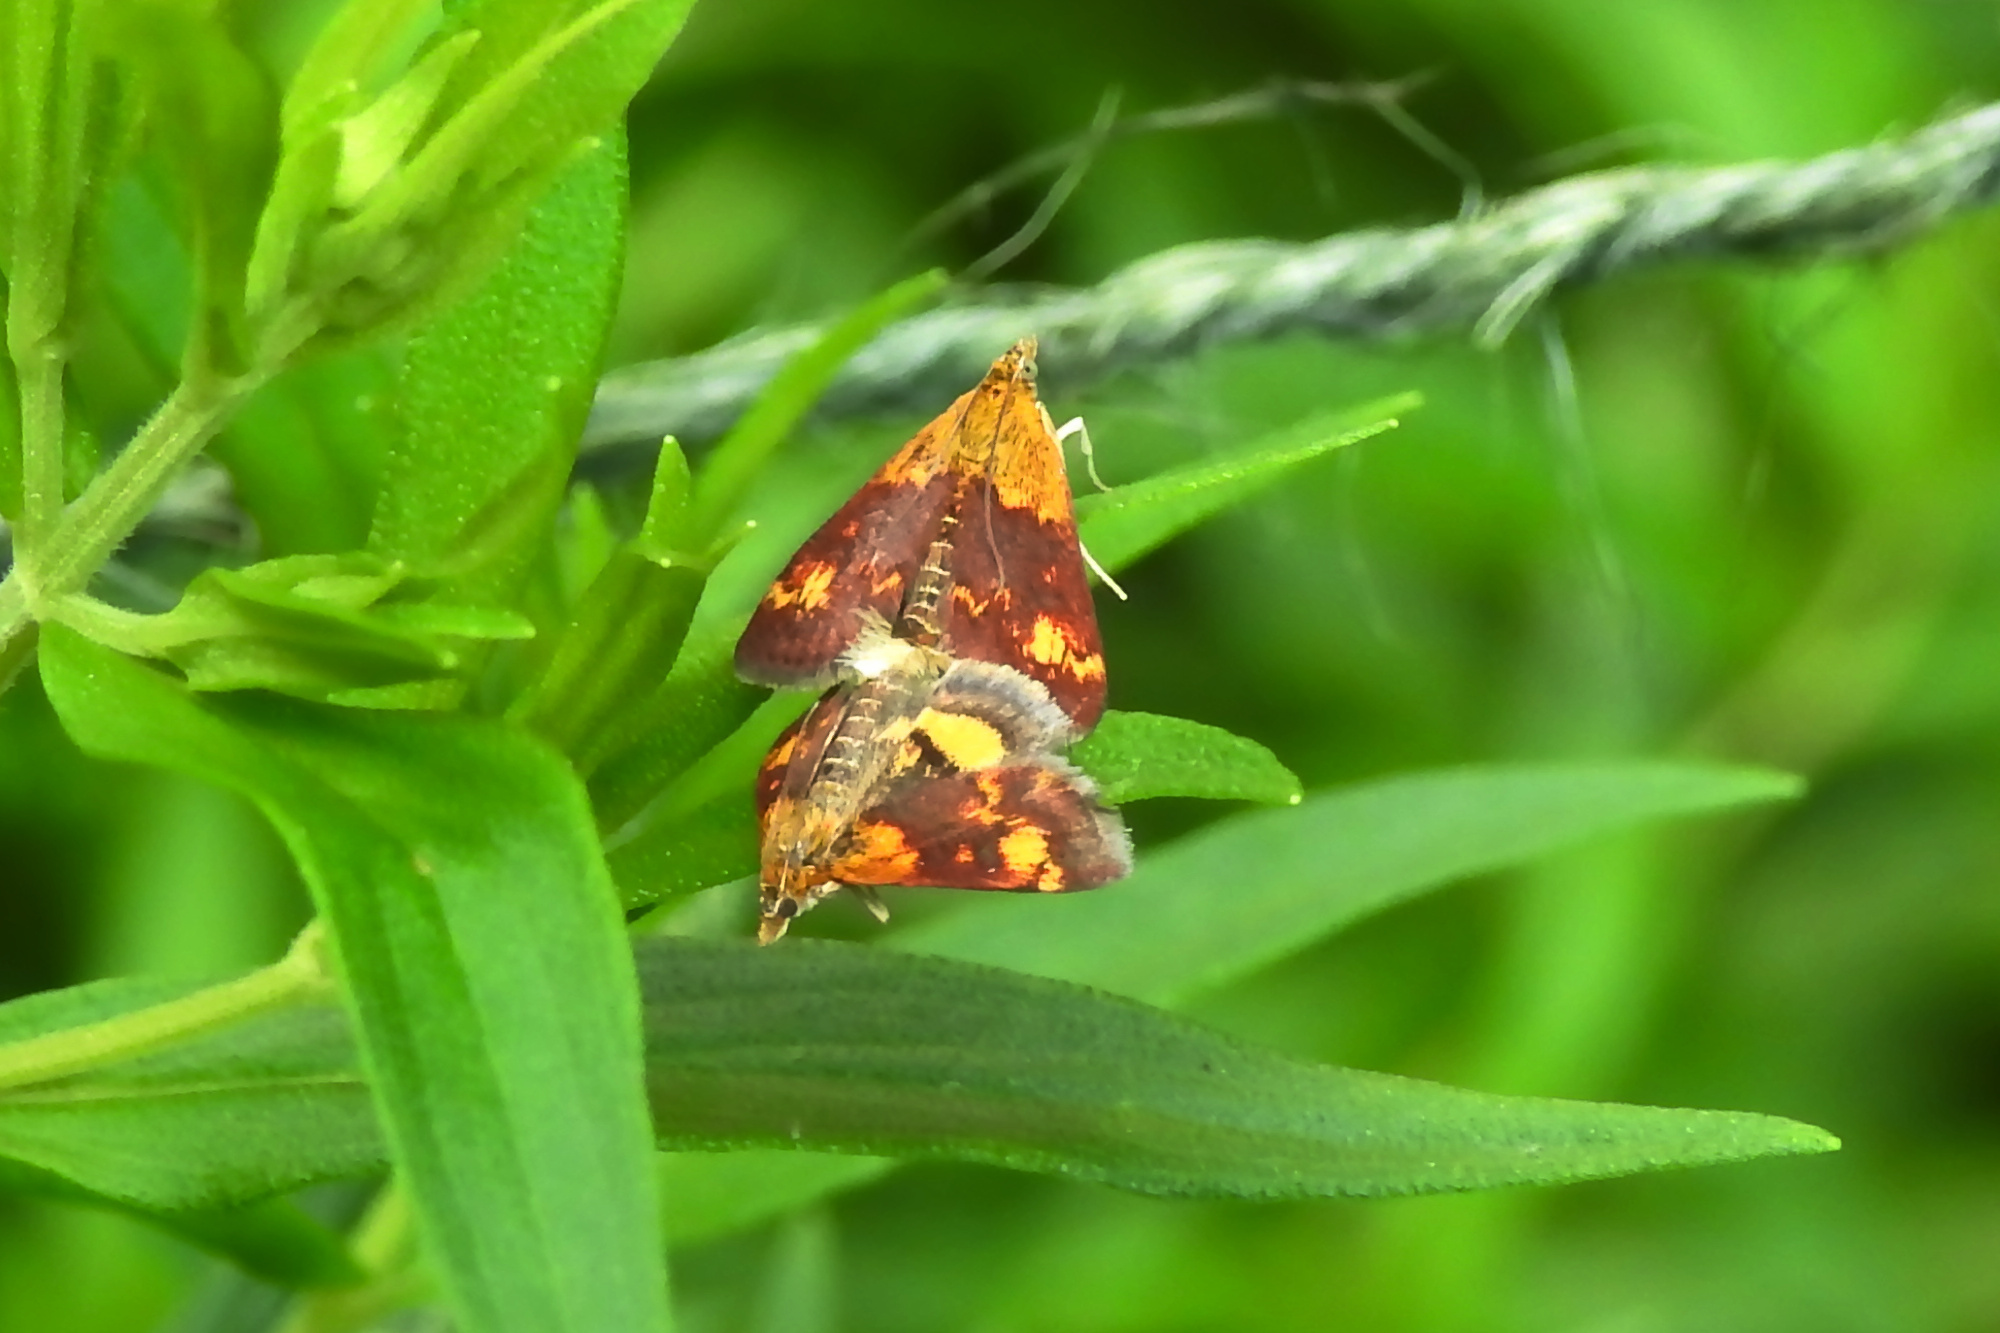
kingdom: Animalia
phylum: Arthropoda
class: Insecta
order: Lepidoptera
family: Crambidae
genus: Pyrausta
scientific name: Pyrausta orphisalis
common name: Orange mint moth
